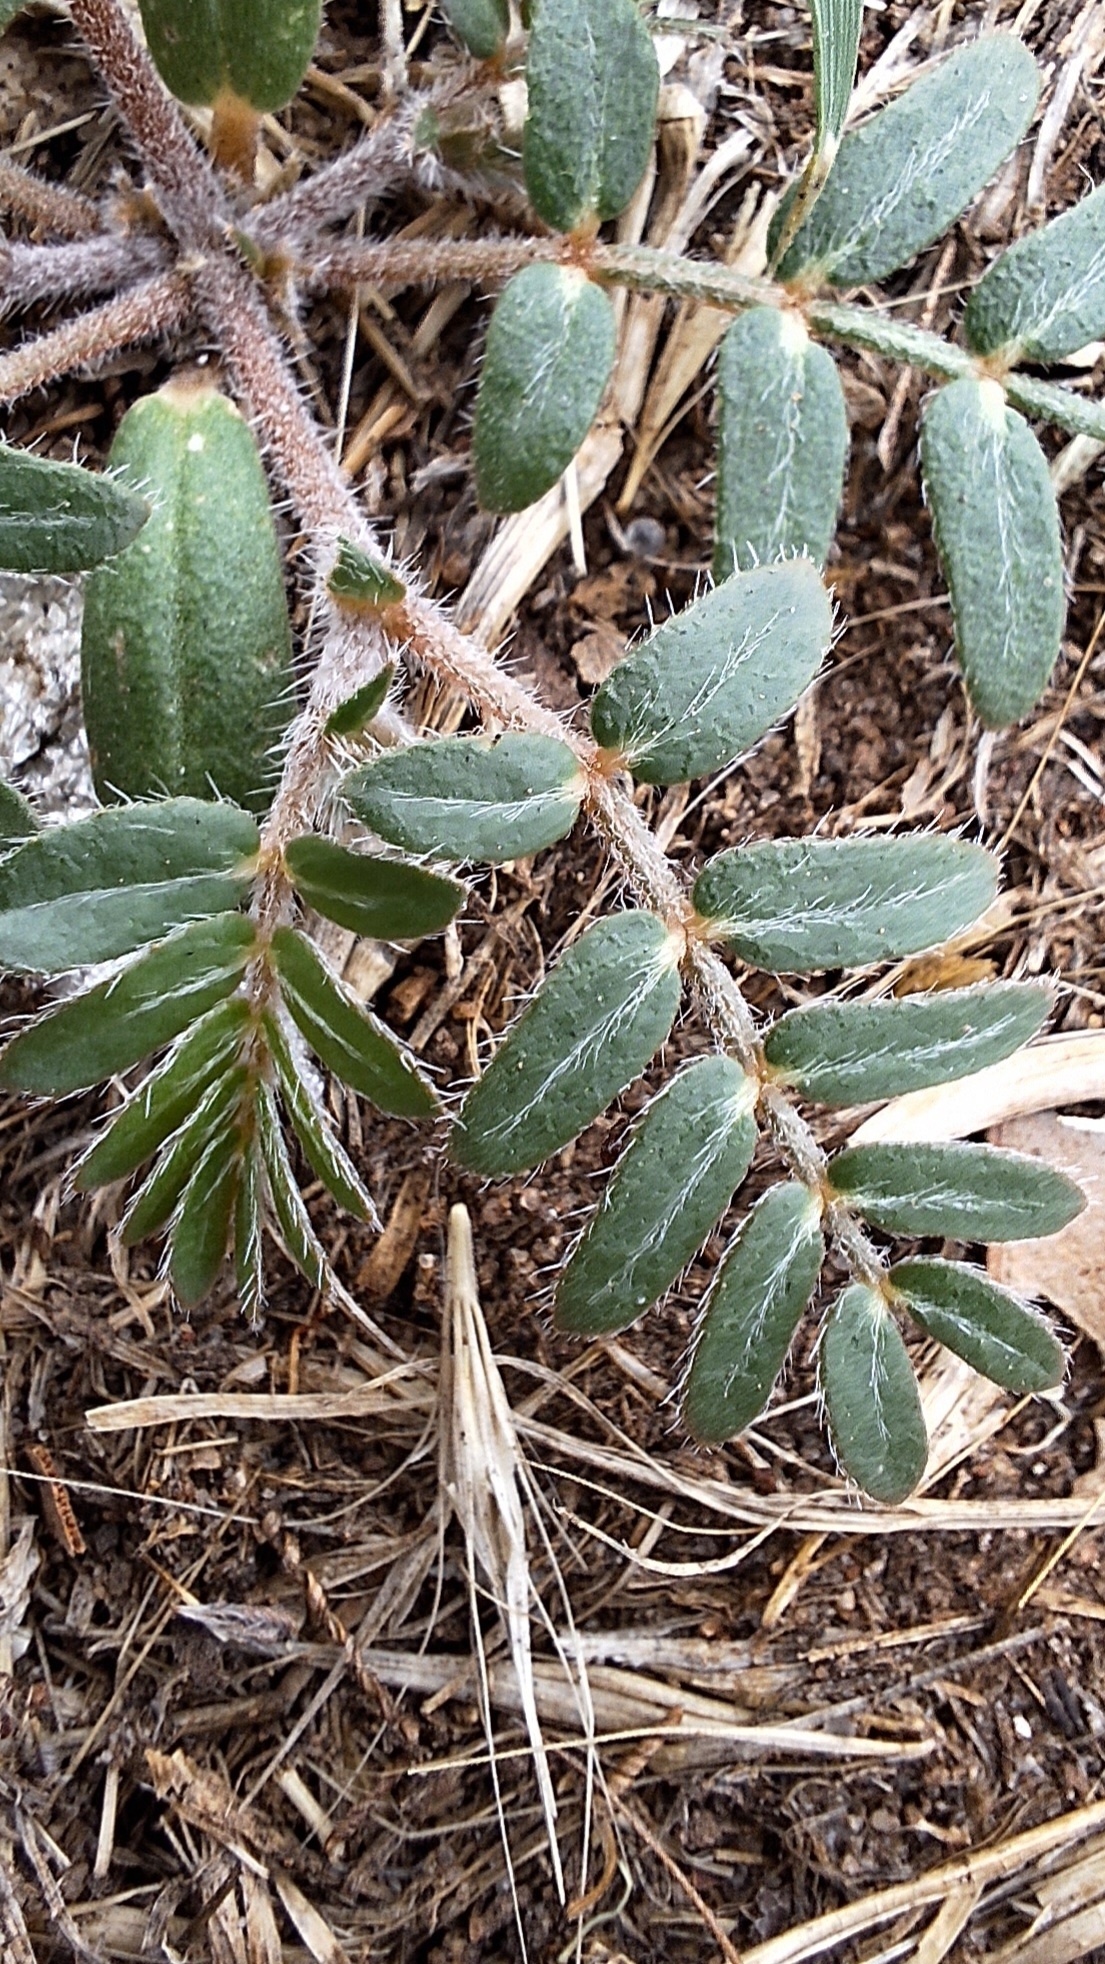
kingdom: Plantae
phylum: Tracheophyta
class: Magnoliopsida
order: Zygophyllales
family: Zygophyllaceae
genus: Tribulus
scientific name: Tribulus terrestris
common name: Puncturevine
